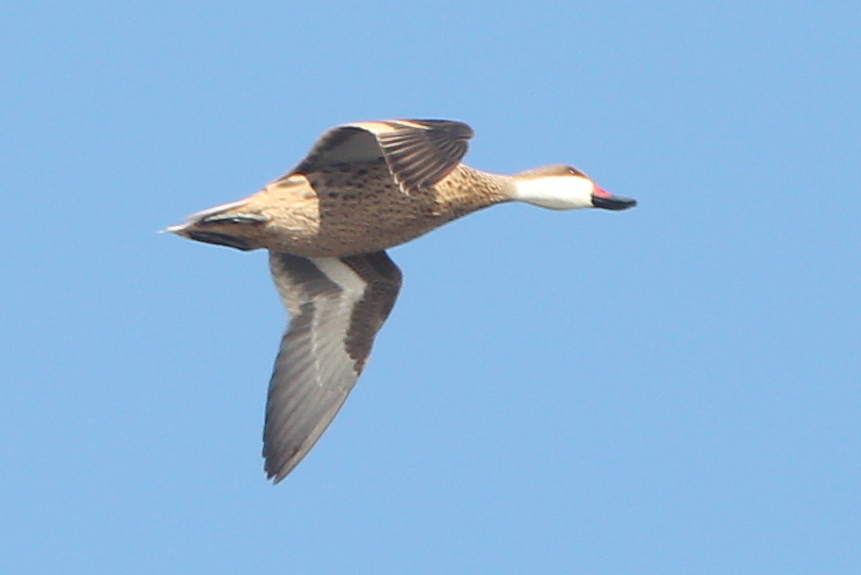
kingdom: Animalia
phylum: Chordata
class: Aves
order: Anseriformes
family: Anatidae
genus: Anas
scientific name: Anas bahamensis
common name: White-cheeked pintail
